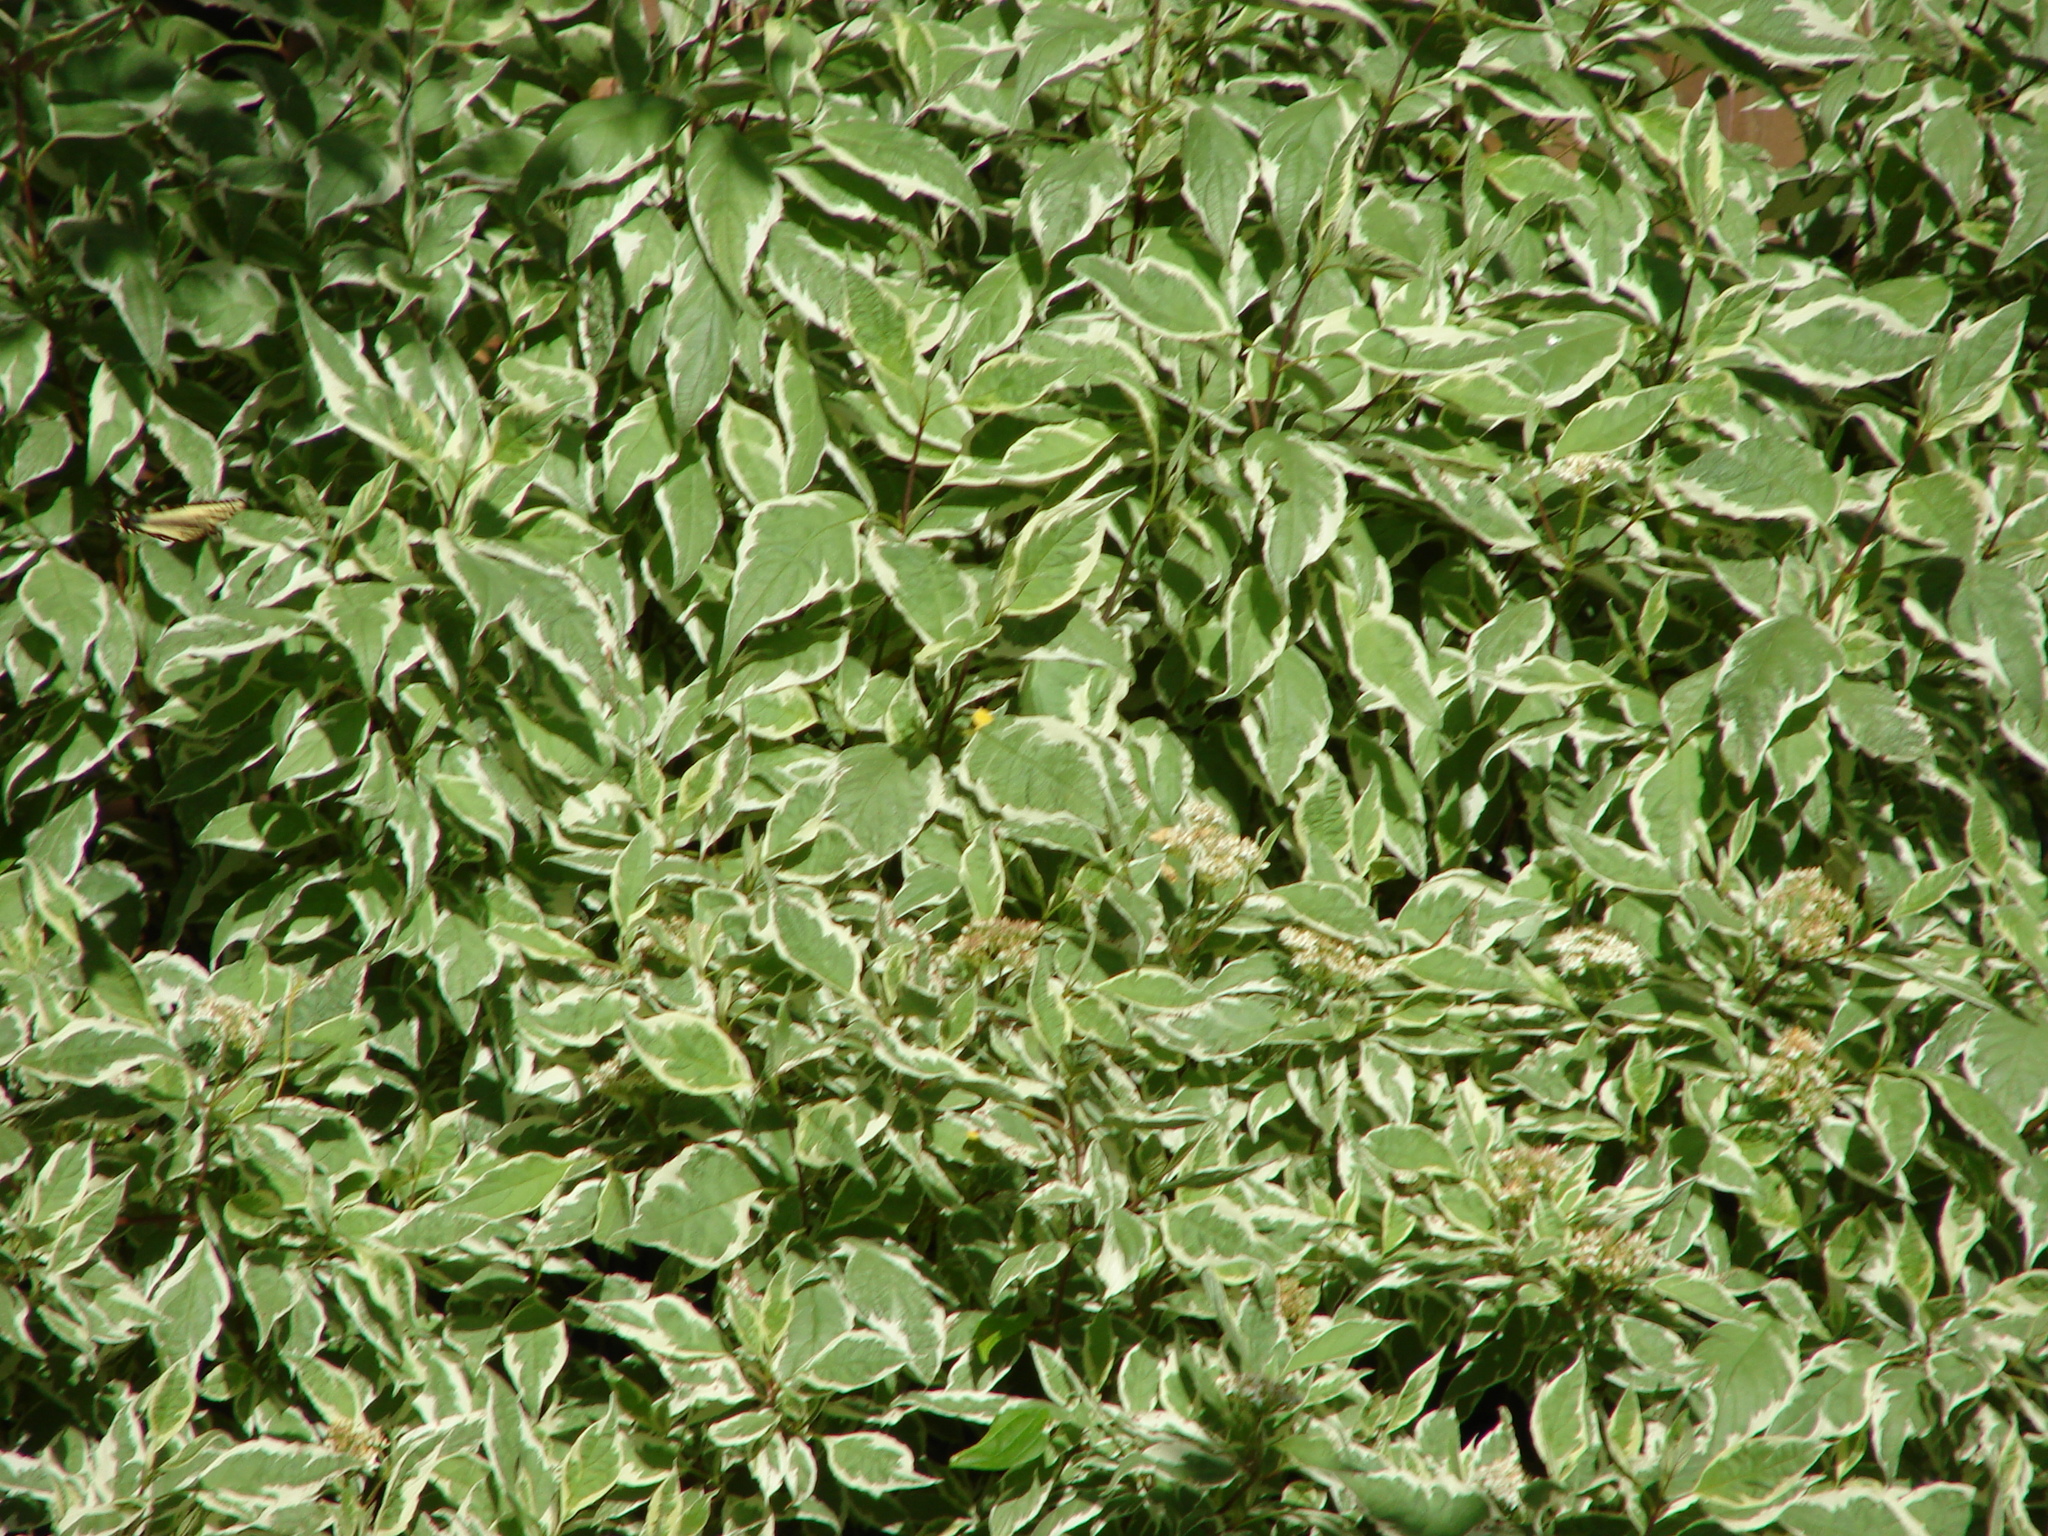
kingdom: Animalia
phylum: Arthropoda
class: Insecta
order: Lepidoptera
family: Papilionidae
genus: Papilio
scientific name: Papilio rutulus
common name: Western tiger swallowtail
